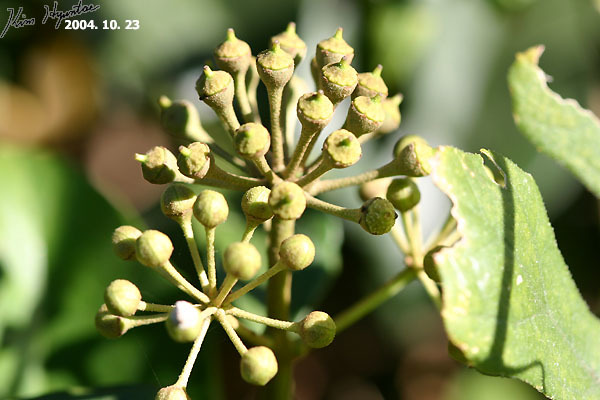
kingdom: Plantae
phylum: Tracheophyta
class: Magnoliopsida
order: Apiales
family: Araliaceae
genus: Hedera
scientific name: Hedera helix
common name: Ivy
